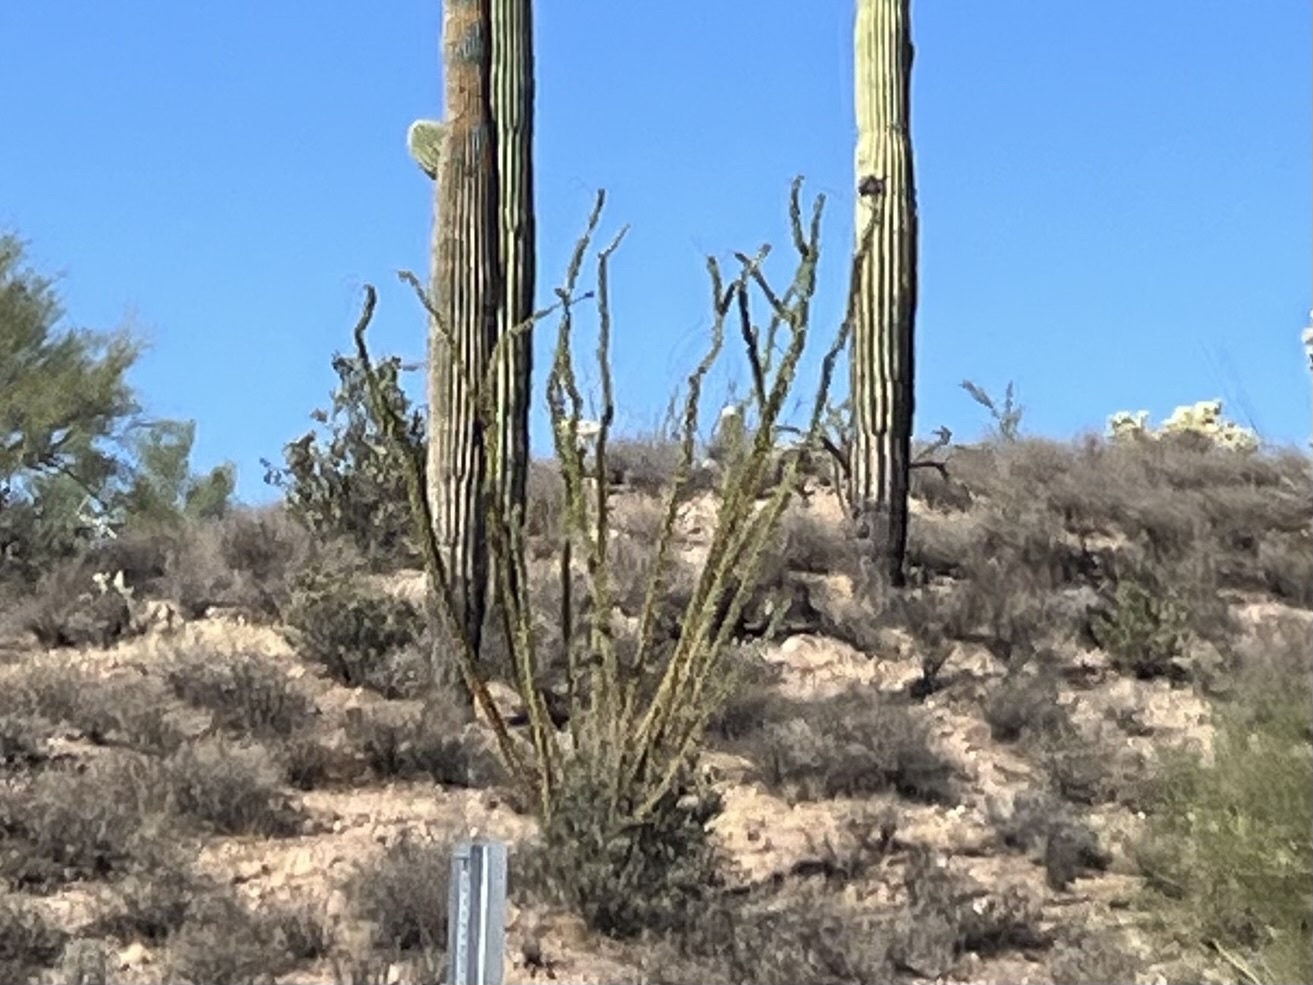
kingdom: Plantae
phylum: Tracheophyta
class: Magnoliopsida
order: Ericales
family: Fouquieriaceae
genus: Fouquieria
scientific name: Fouquieria splendens
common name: Vine-cactus
